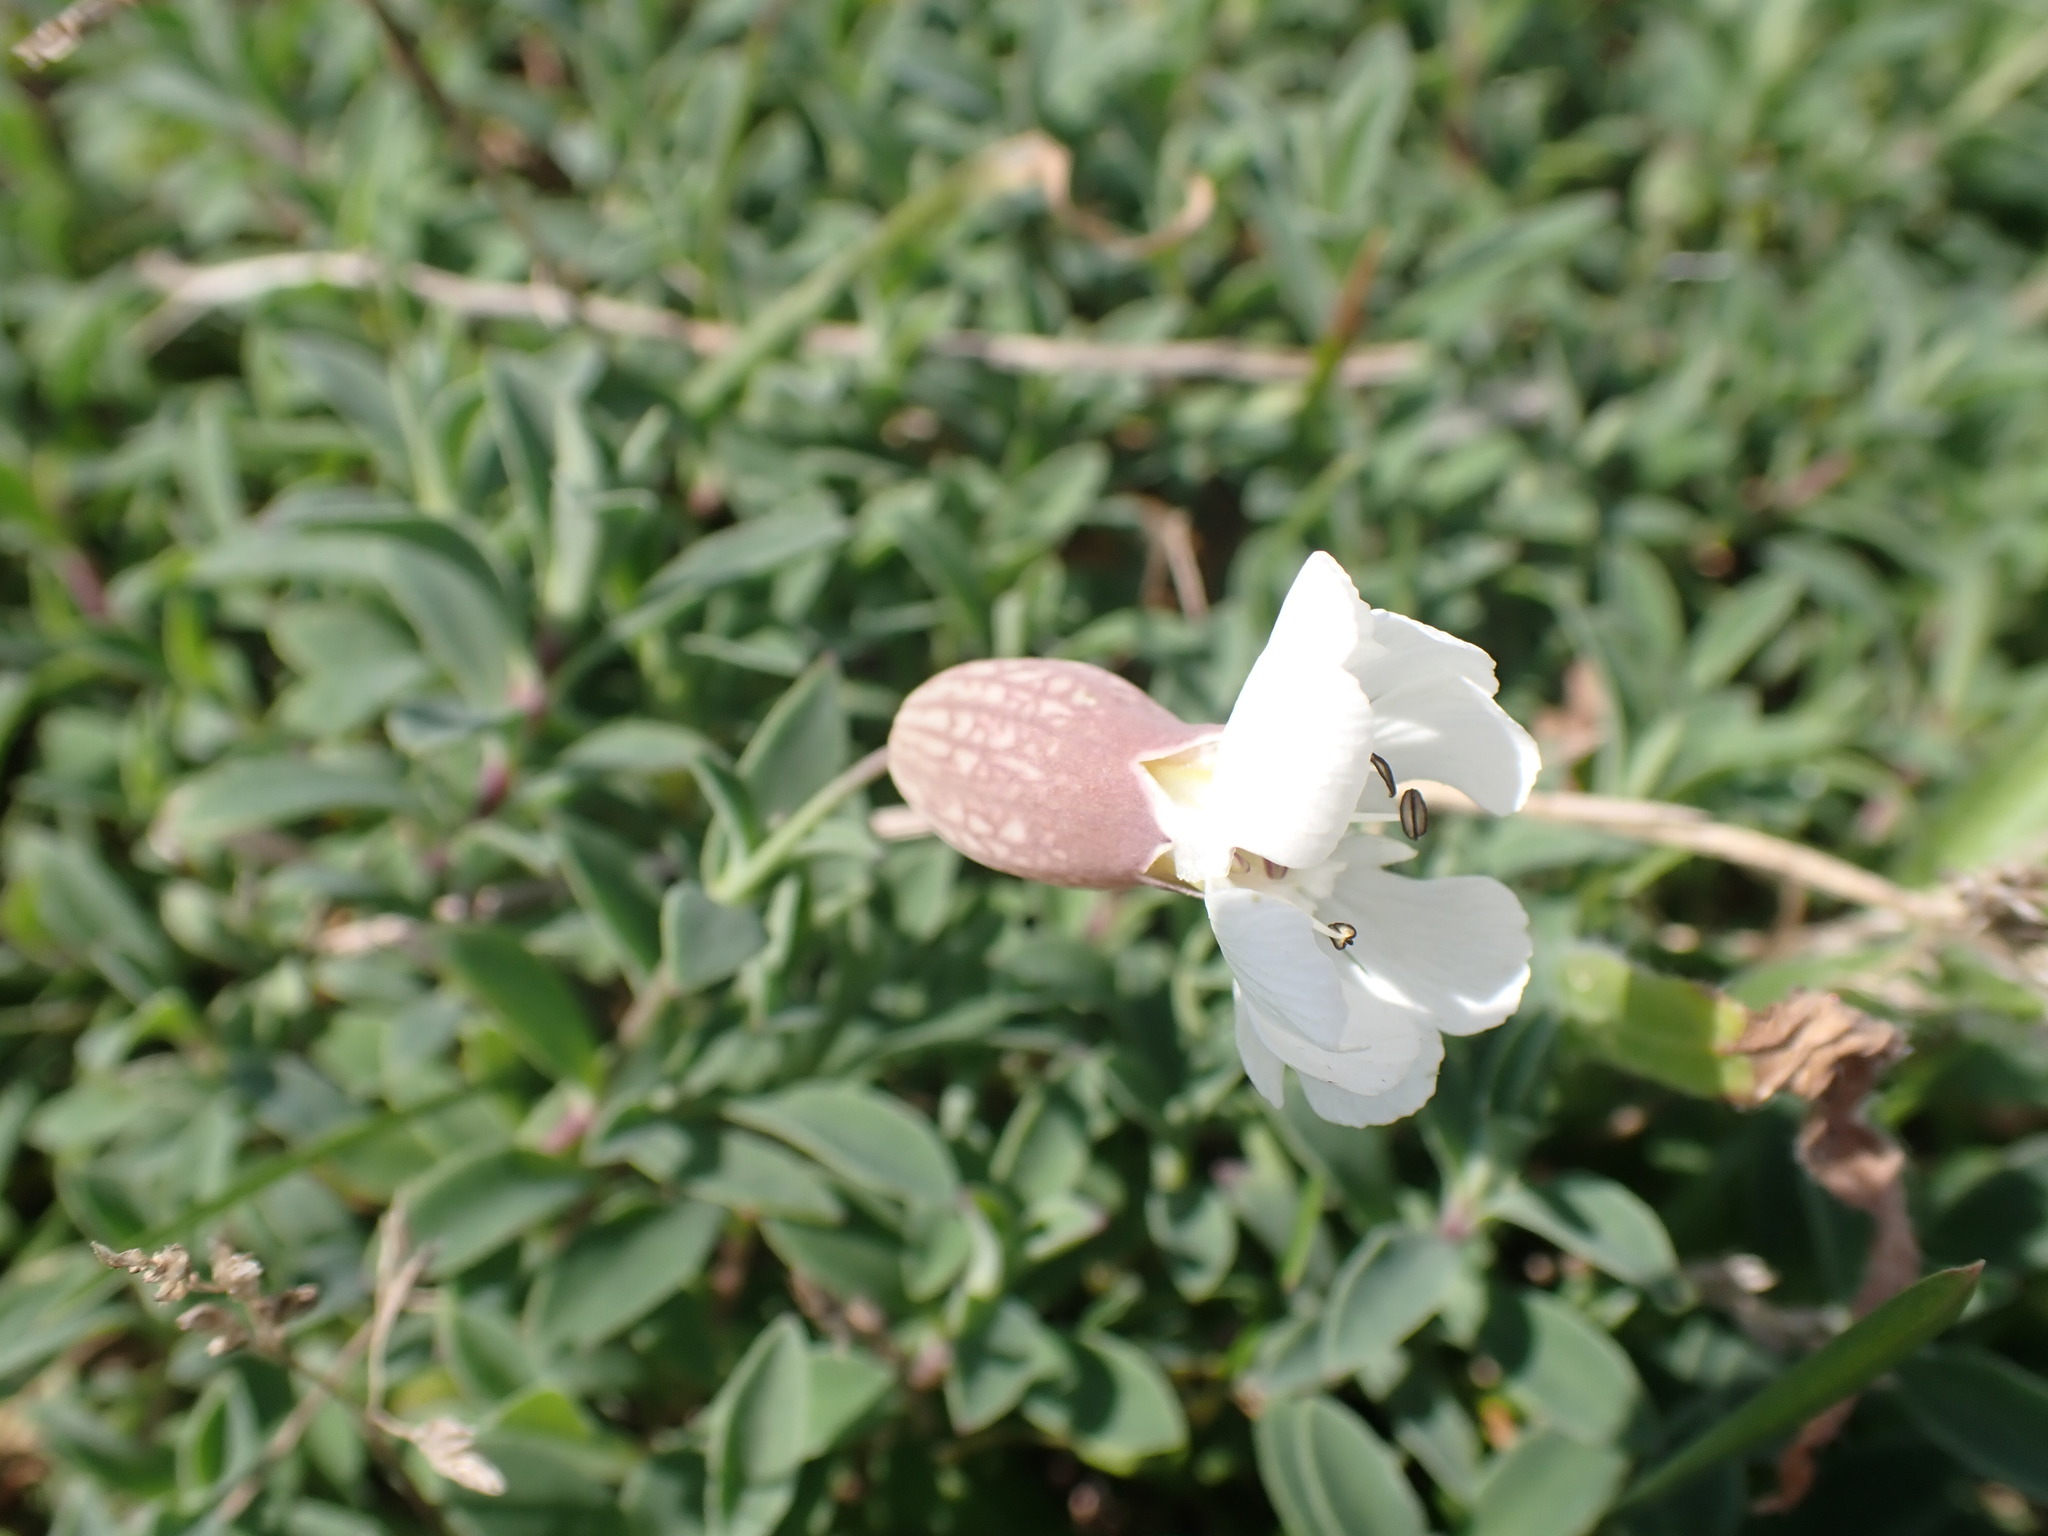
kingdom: Plantae
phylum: Tracheophyta
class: Magnoliopsida
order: Caryophyllales
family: Caryophyllaceae
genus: Silene
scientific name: Silene uniflora
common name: Sea campion
